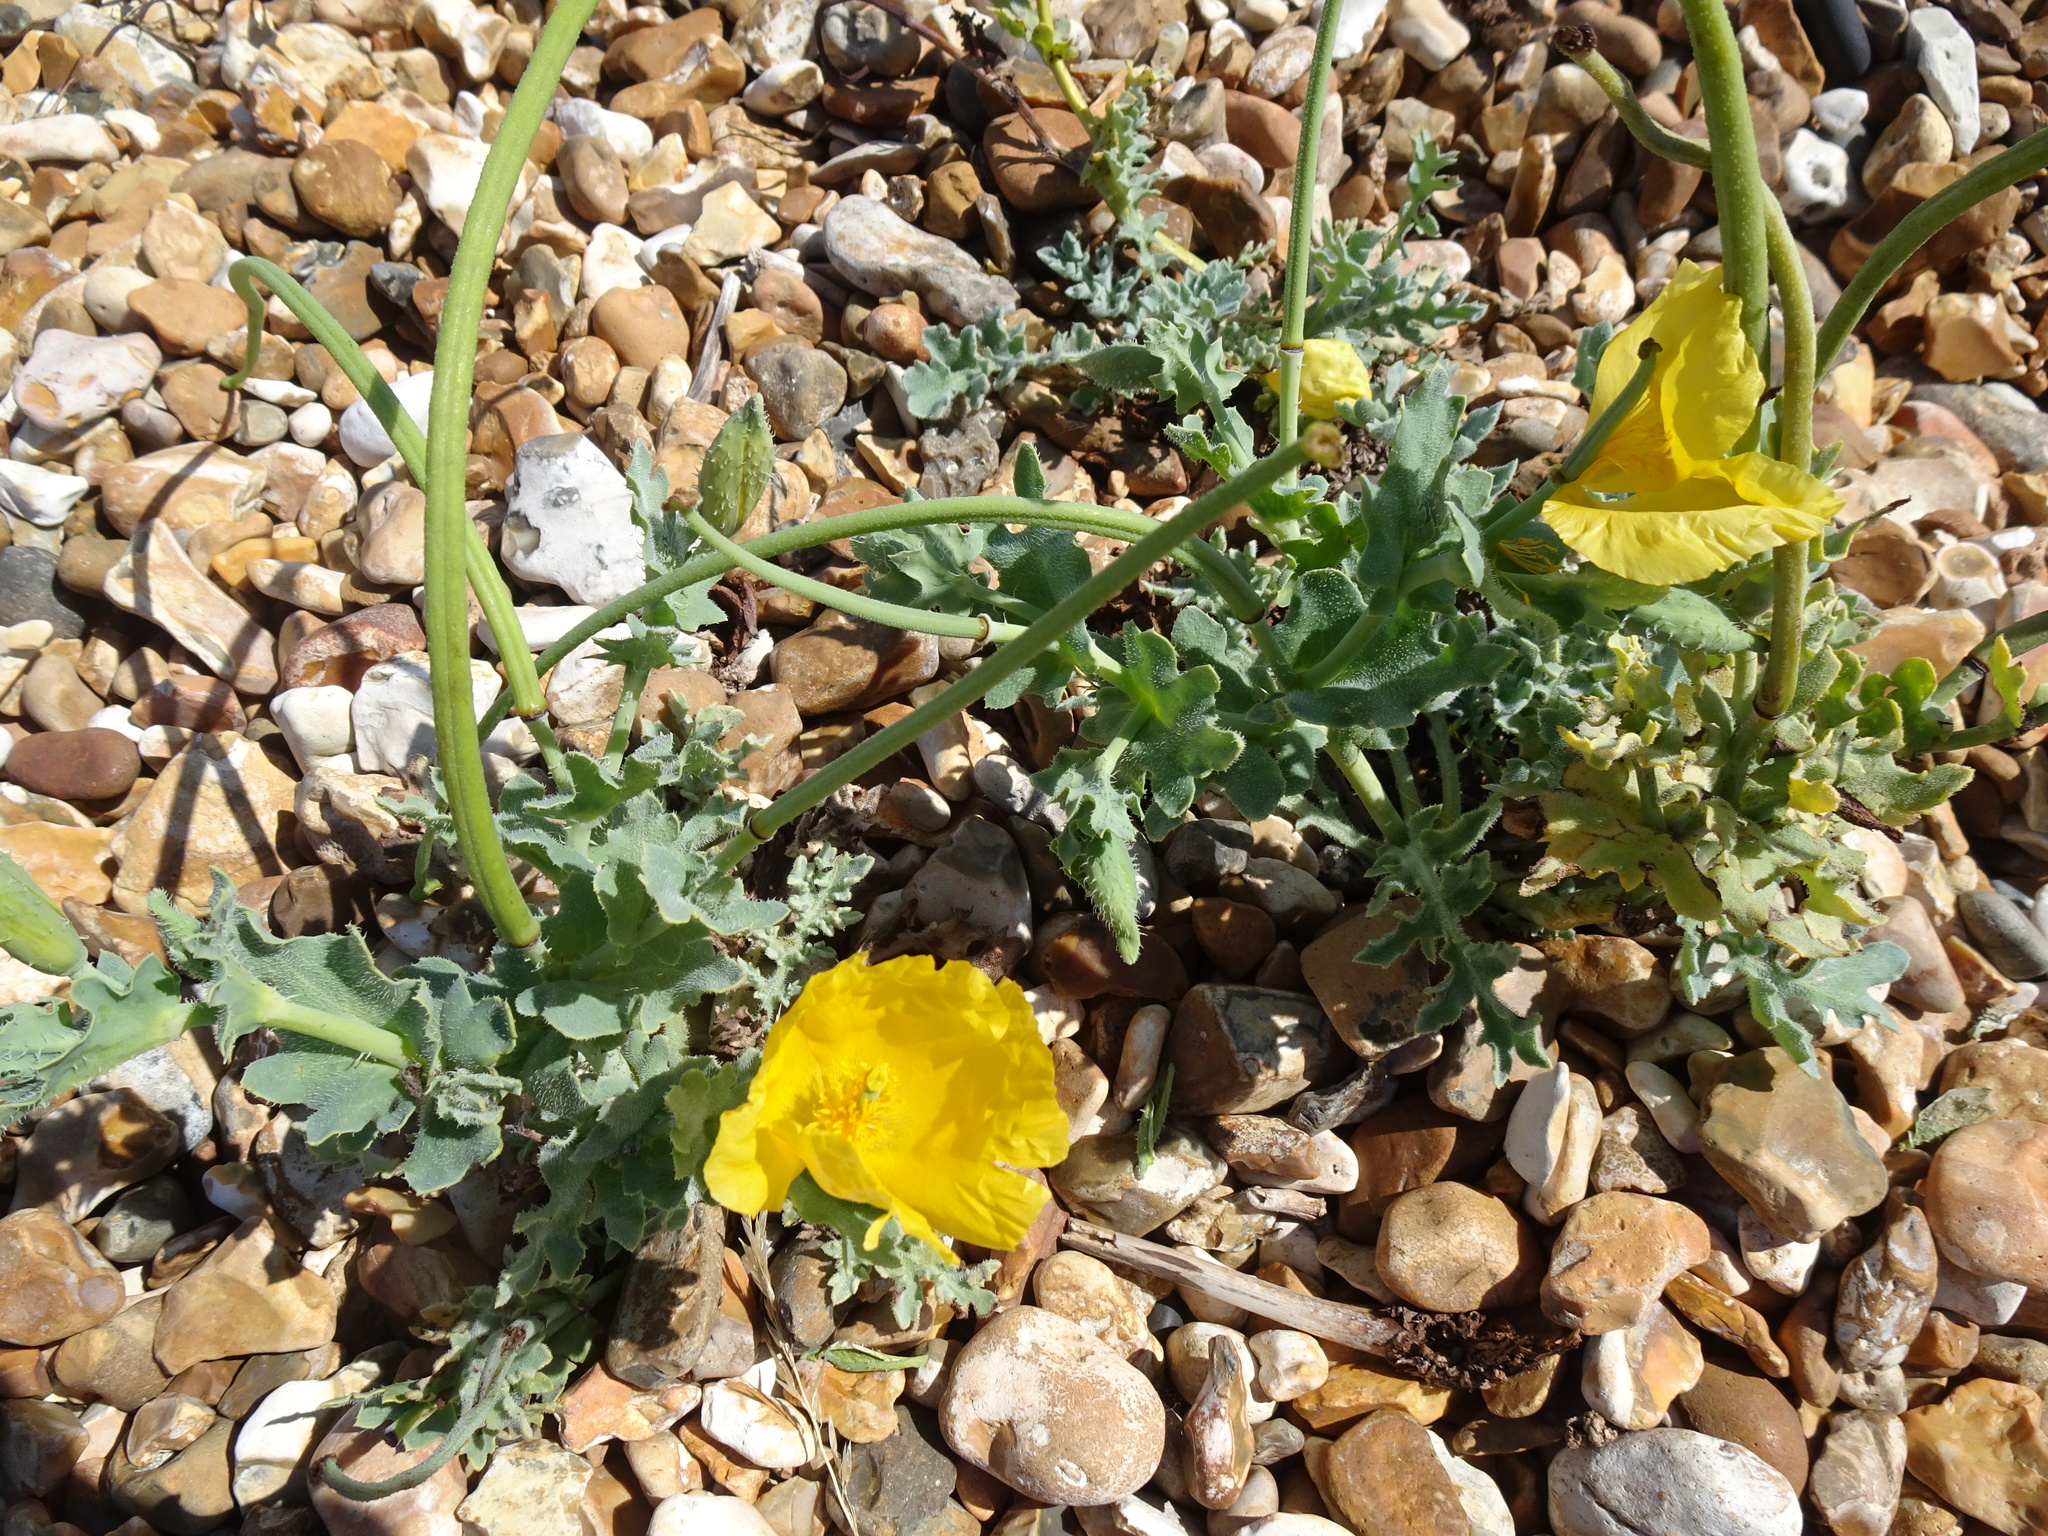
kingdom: Plantae
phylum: Tracheophyta
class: Magnoliopsida
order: Ranunculales
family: Papaveraceae
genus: Glaucium
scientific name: Glaucium flavum
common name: Yellow horned-poppy
